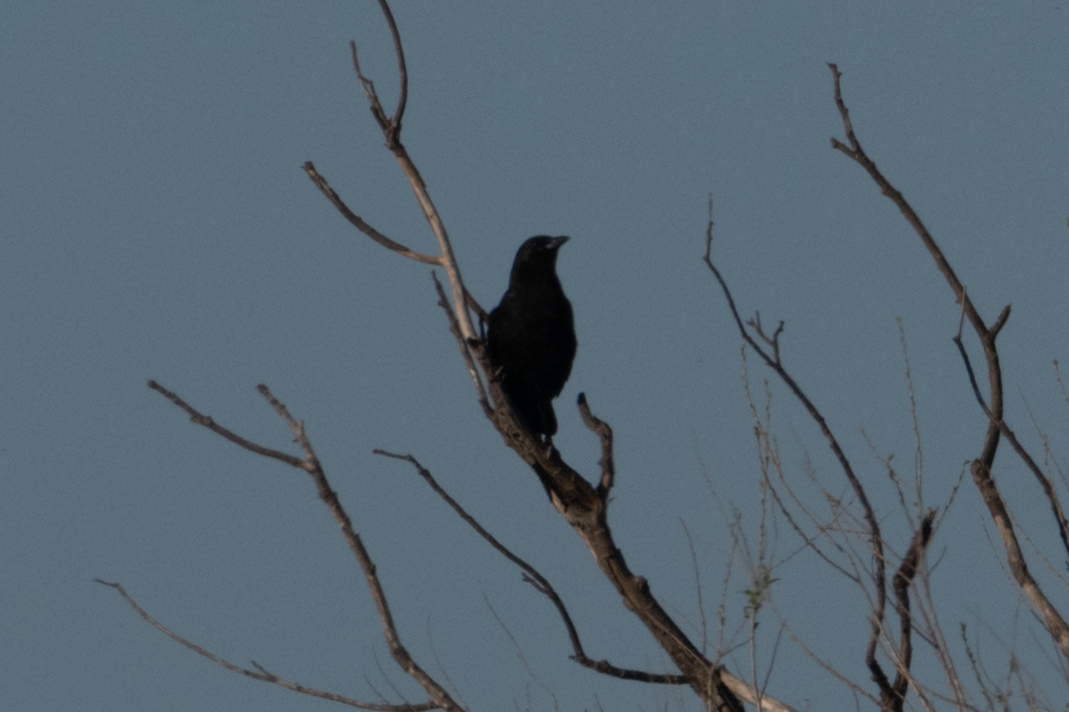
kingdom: Animalia
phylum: Chordata
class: Aves
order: Passeriformes
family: Corvidae
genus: Corvus
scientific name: Corvus brachyrhynchos
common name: American crow
